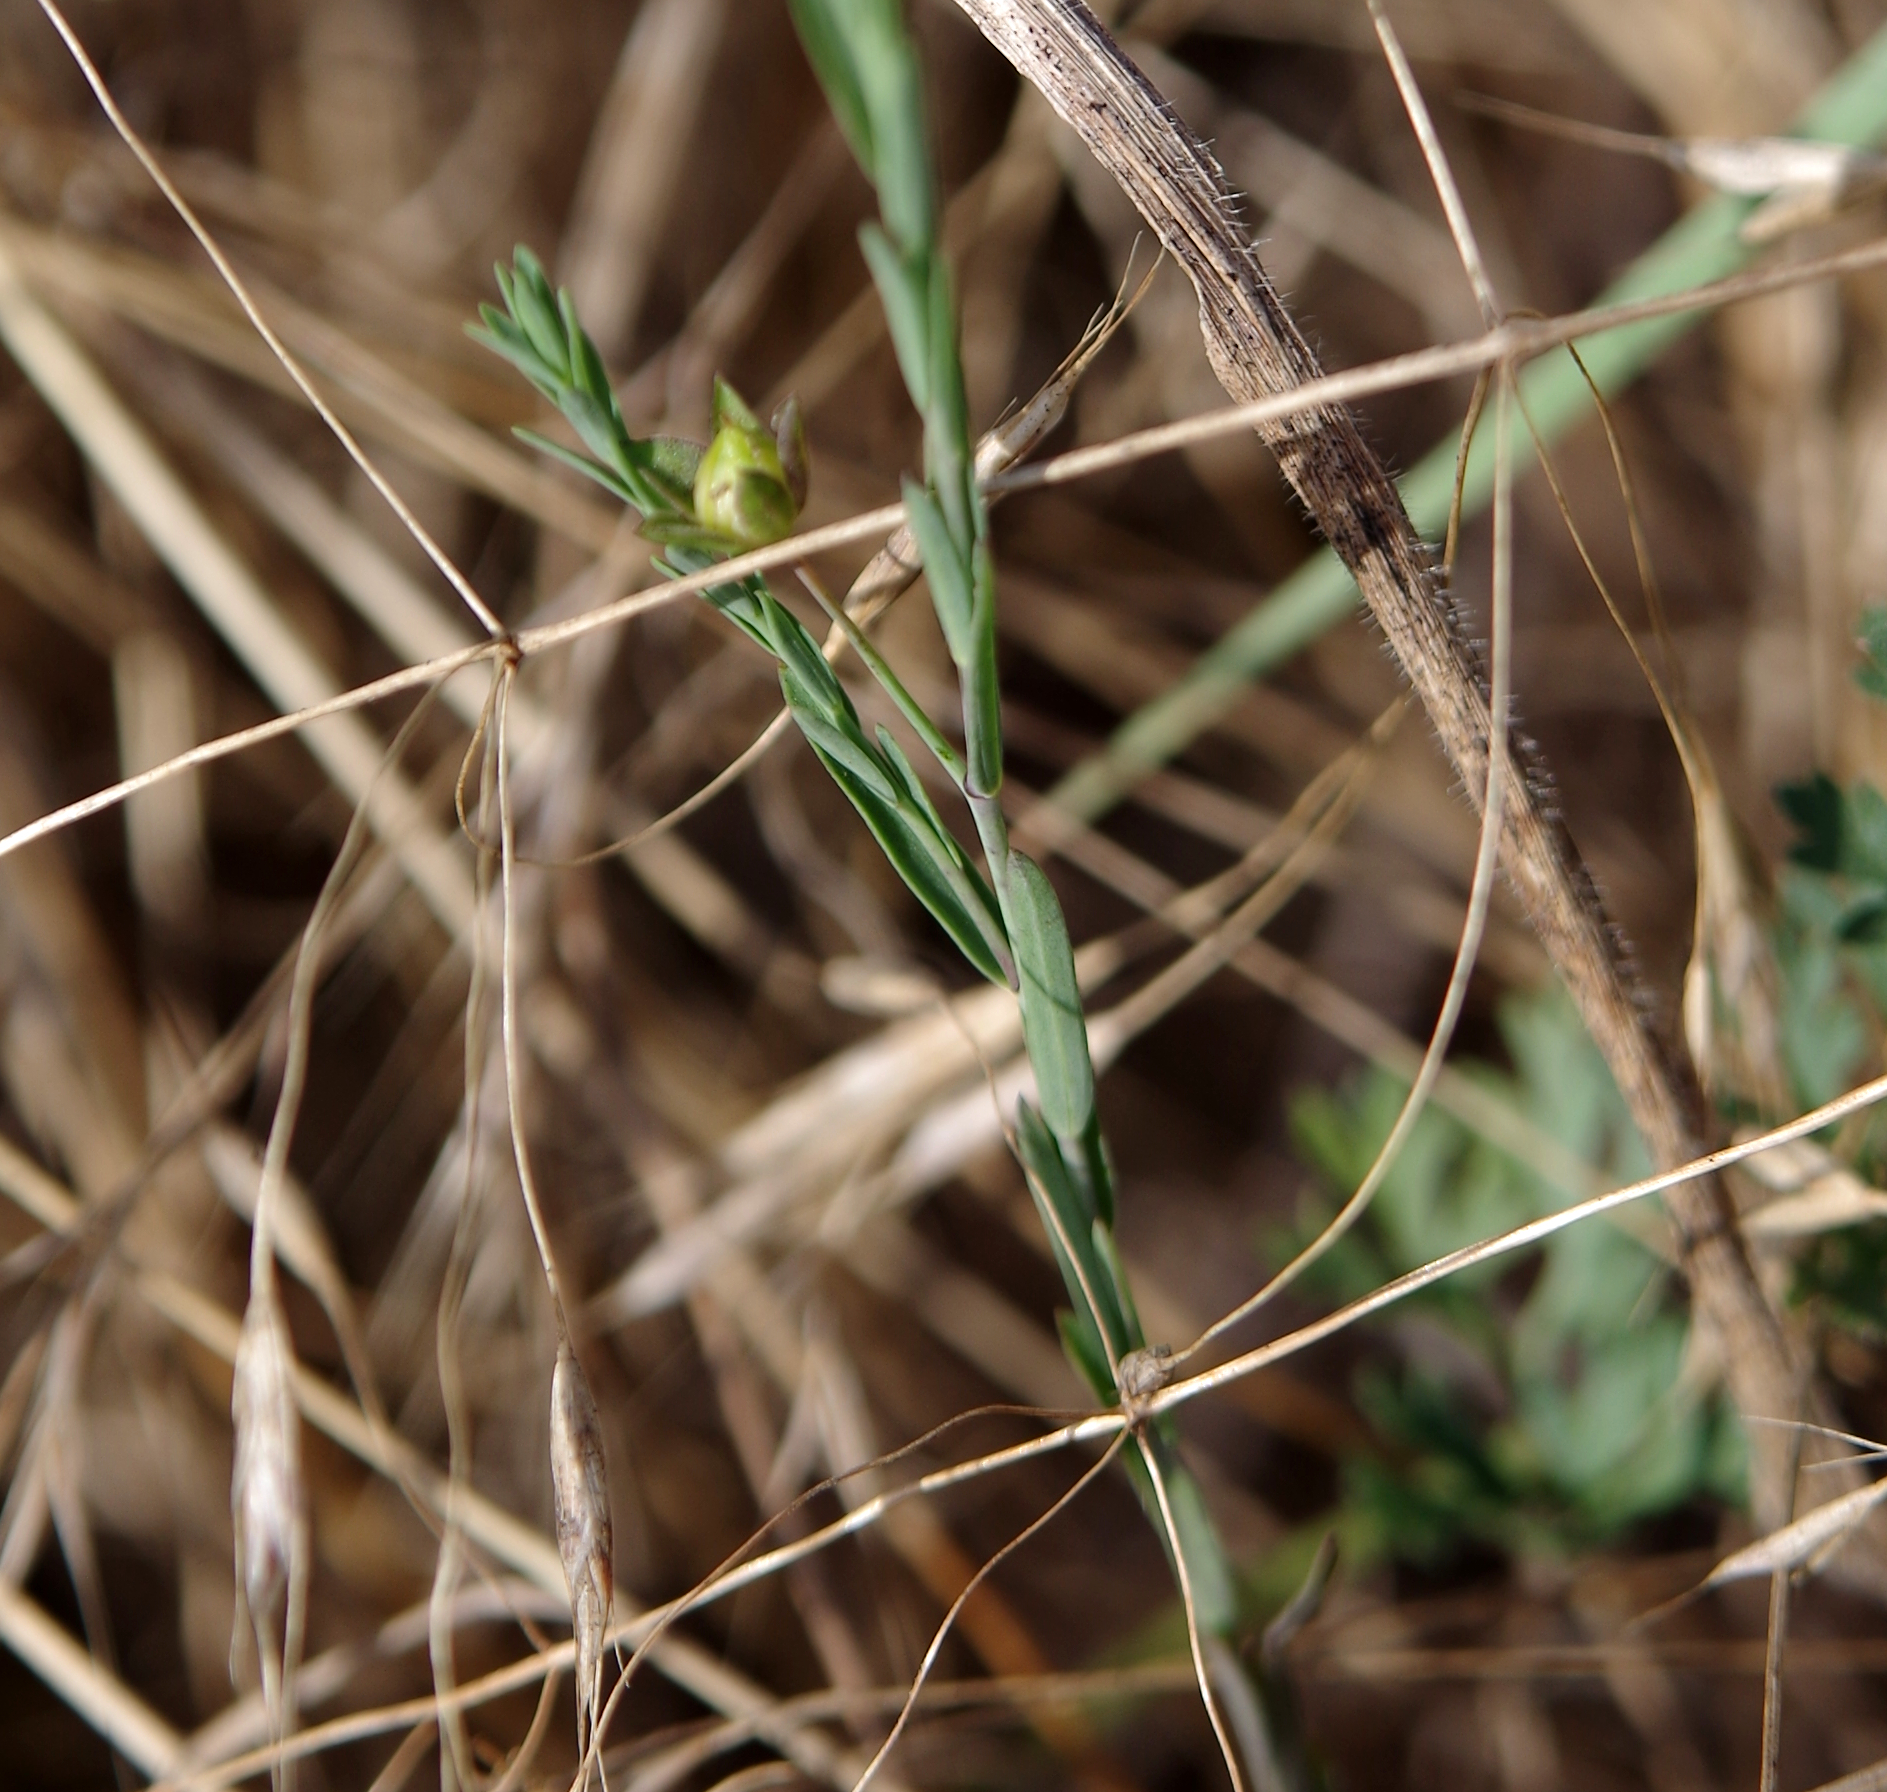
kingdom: Plantae
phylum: Tracheophyta
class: Magnoliopsida
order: Malpighiales
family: Linaceae
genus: Linum
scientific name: Linum bienne
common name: Pale flax
